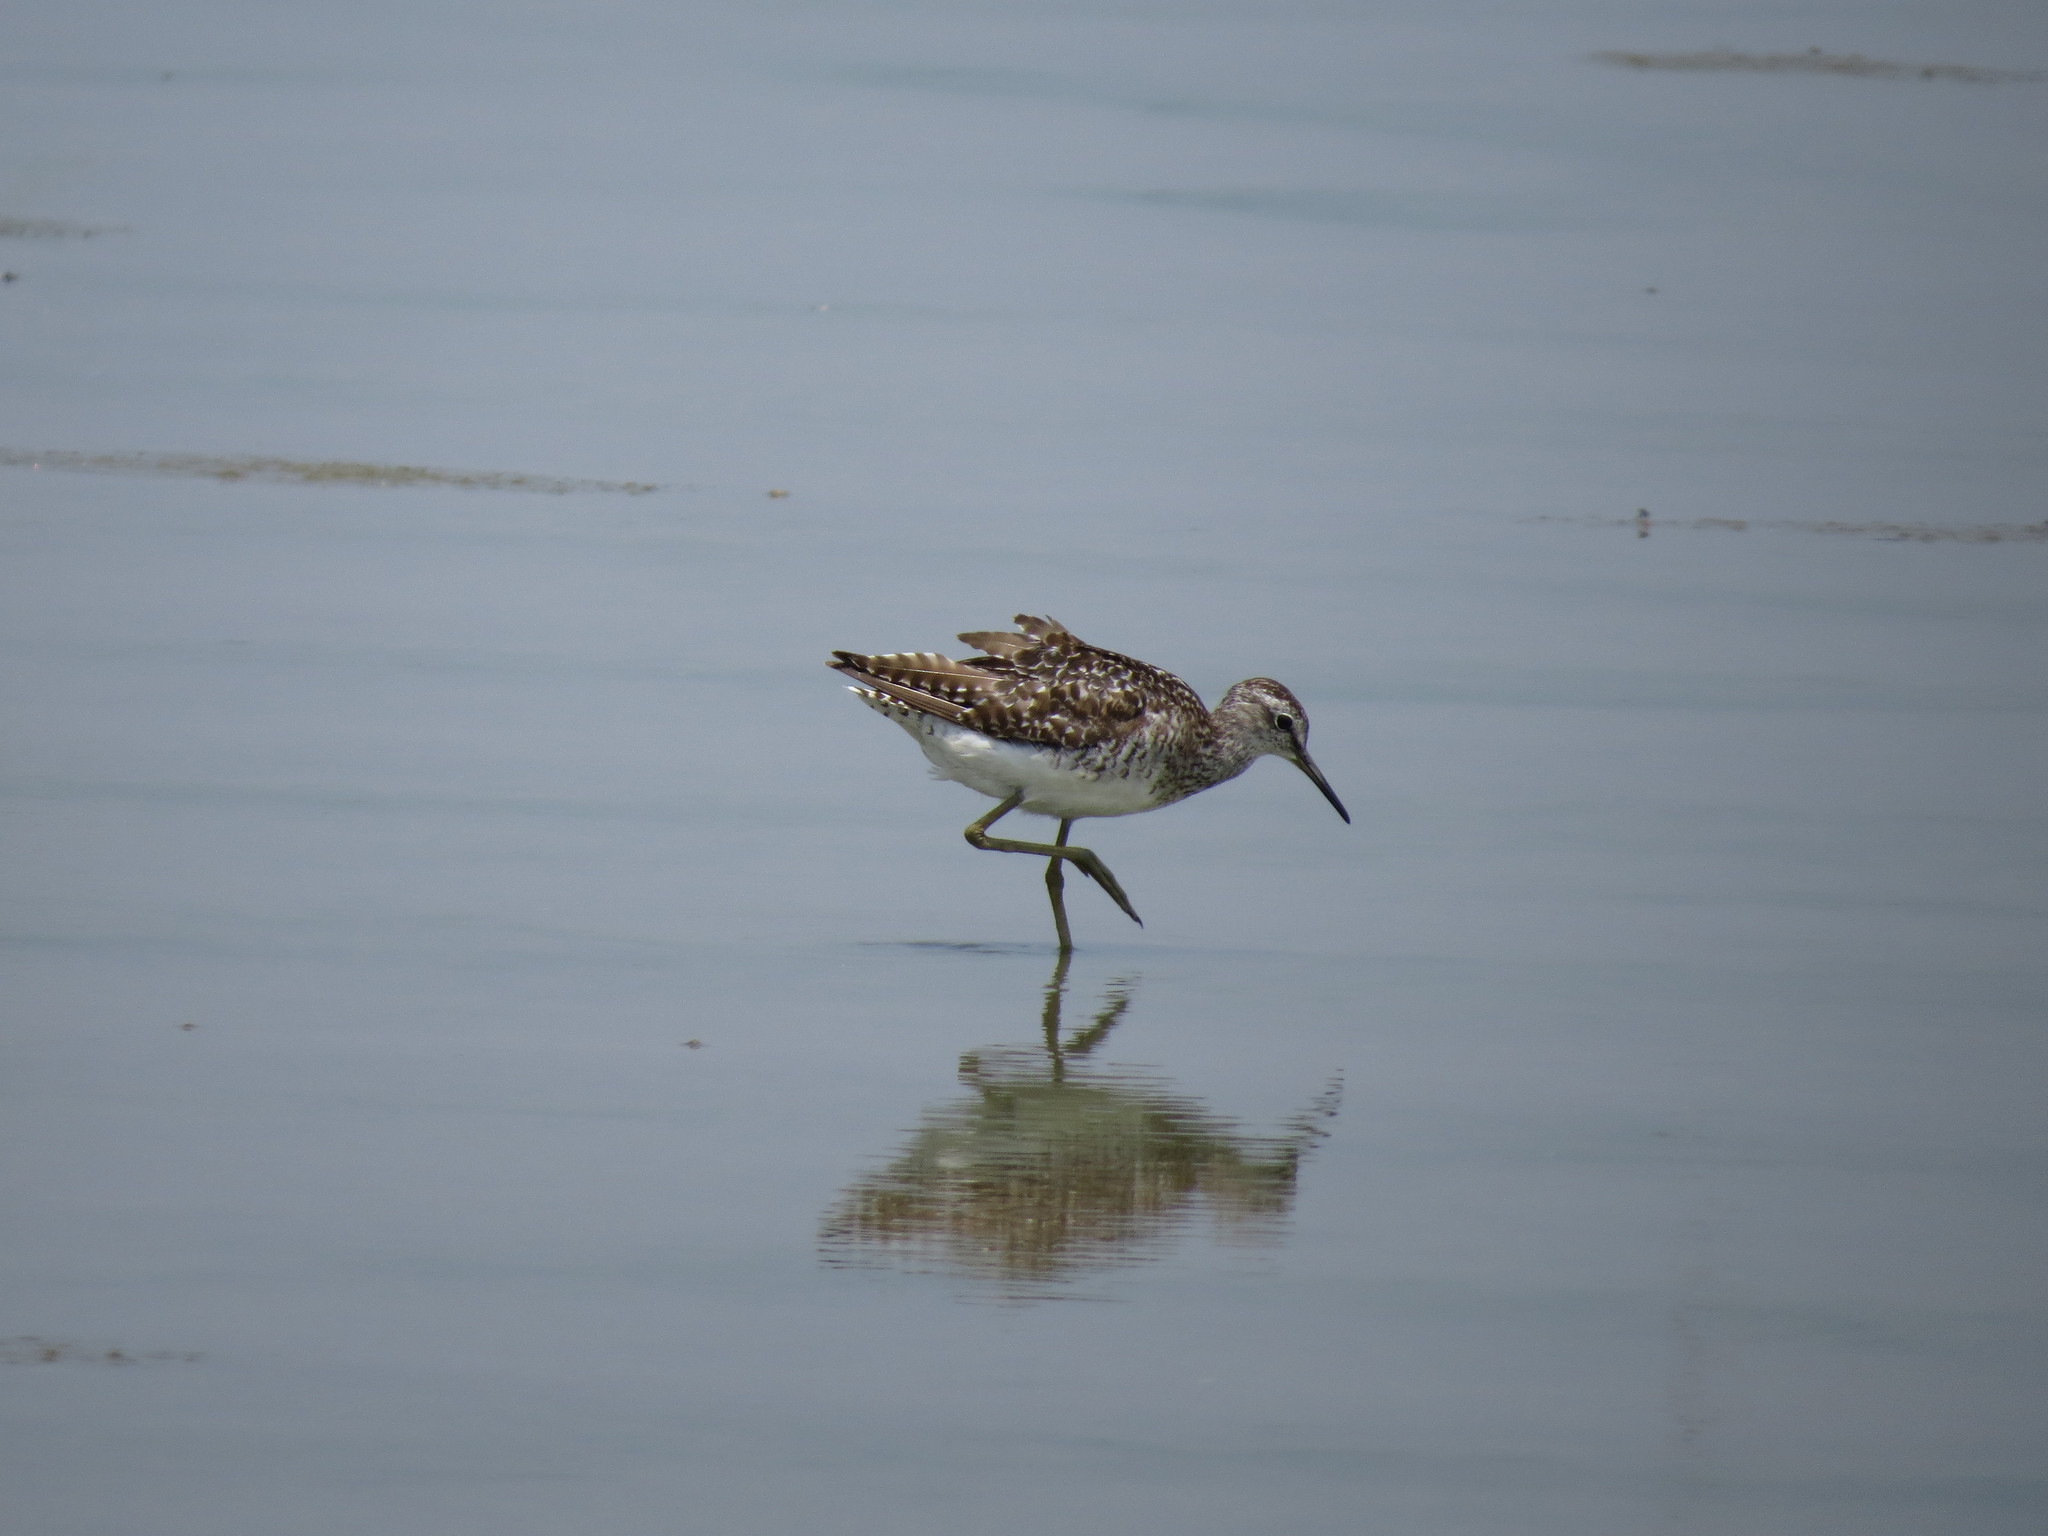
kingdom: Animalia
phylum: Chordata
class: Aves
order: Charadriiformes
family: Scolopacidae
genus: Tringa
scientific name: Tringa glareola
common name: Wood sandpiper
